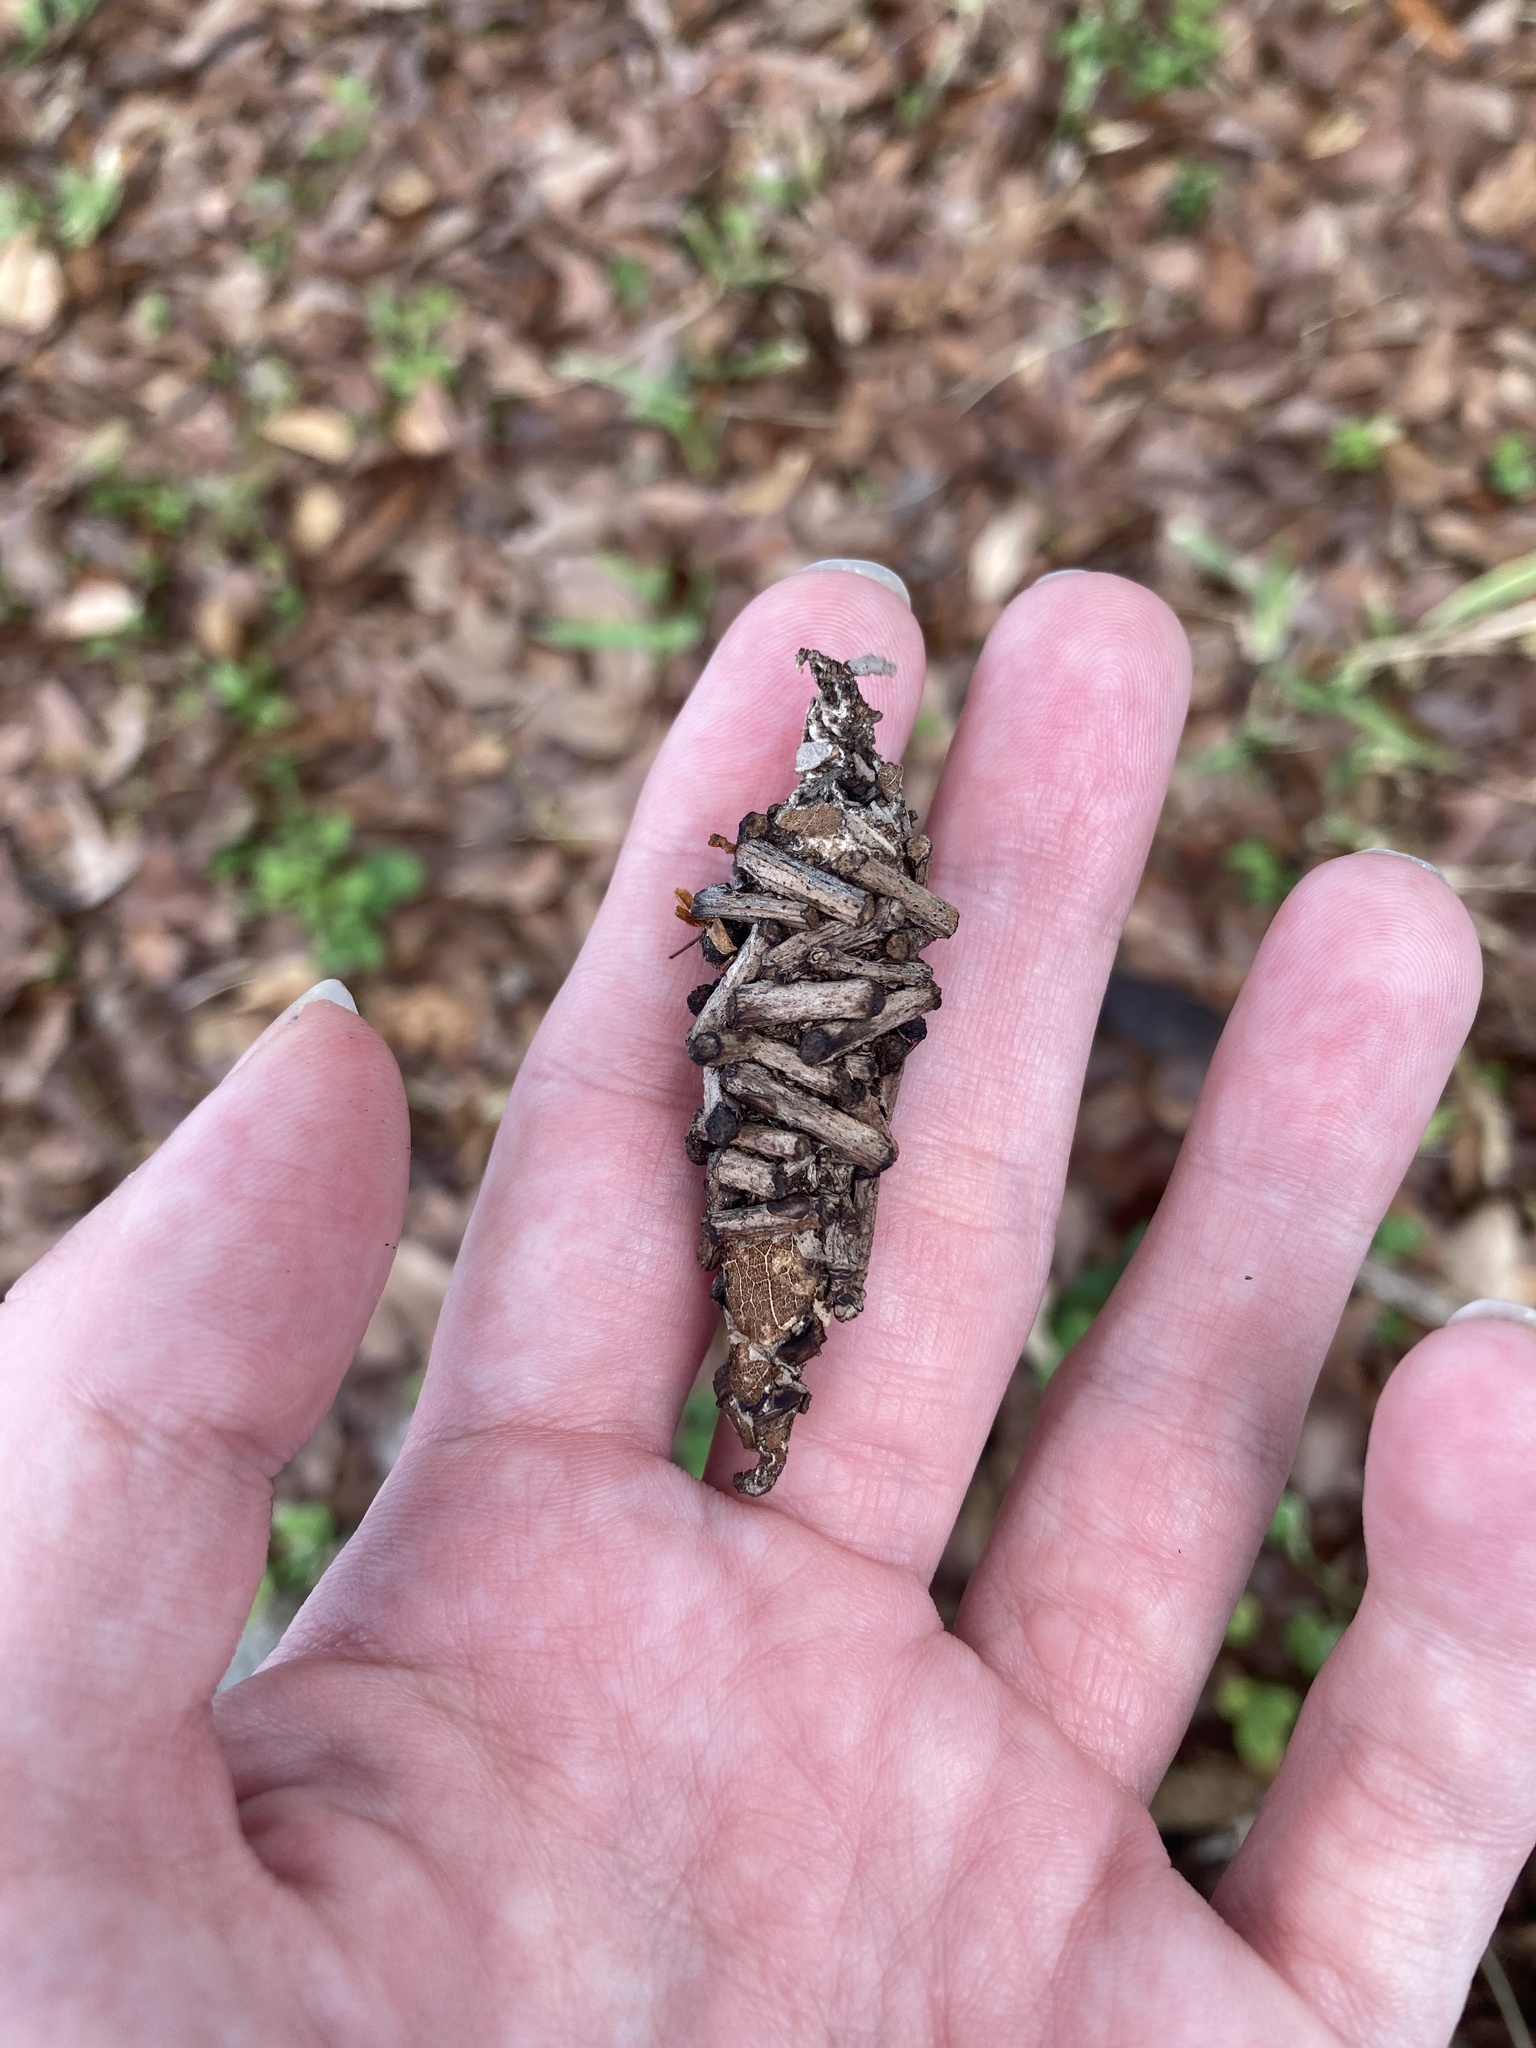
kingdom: Animalia
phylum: Arthropoda
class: Insecta
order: Lepidoptera
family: Psychidae
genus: Oiketicus
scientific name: Oiketicus
